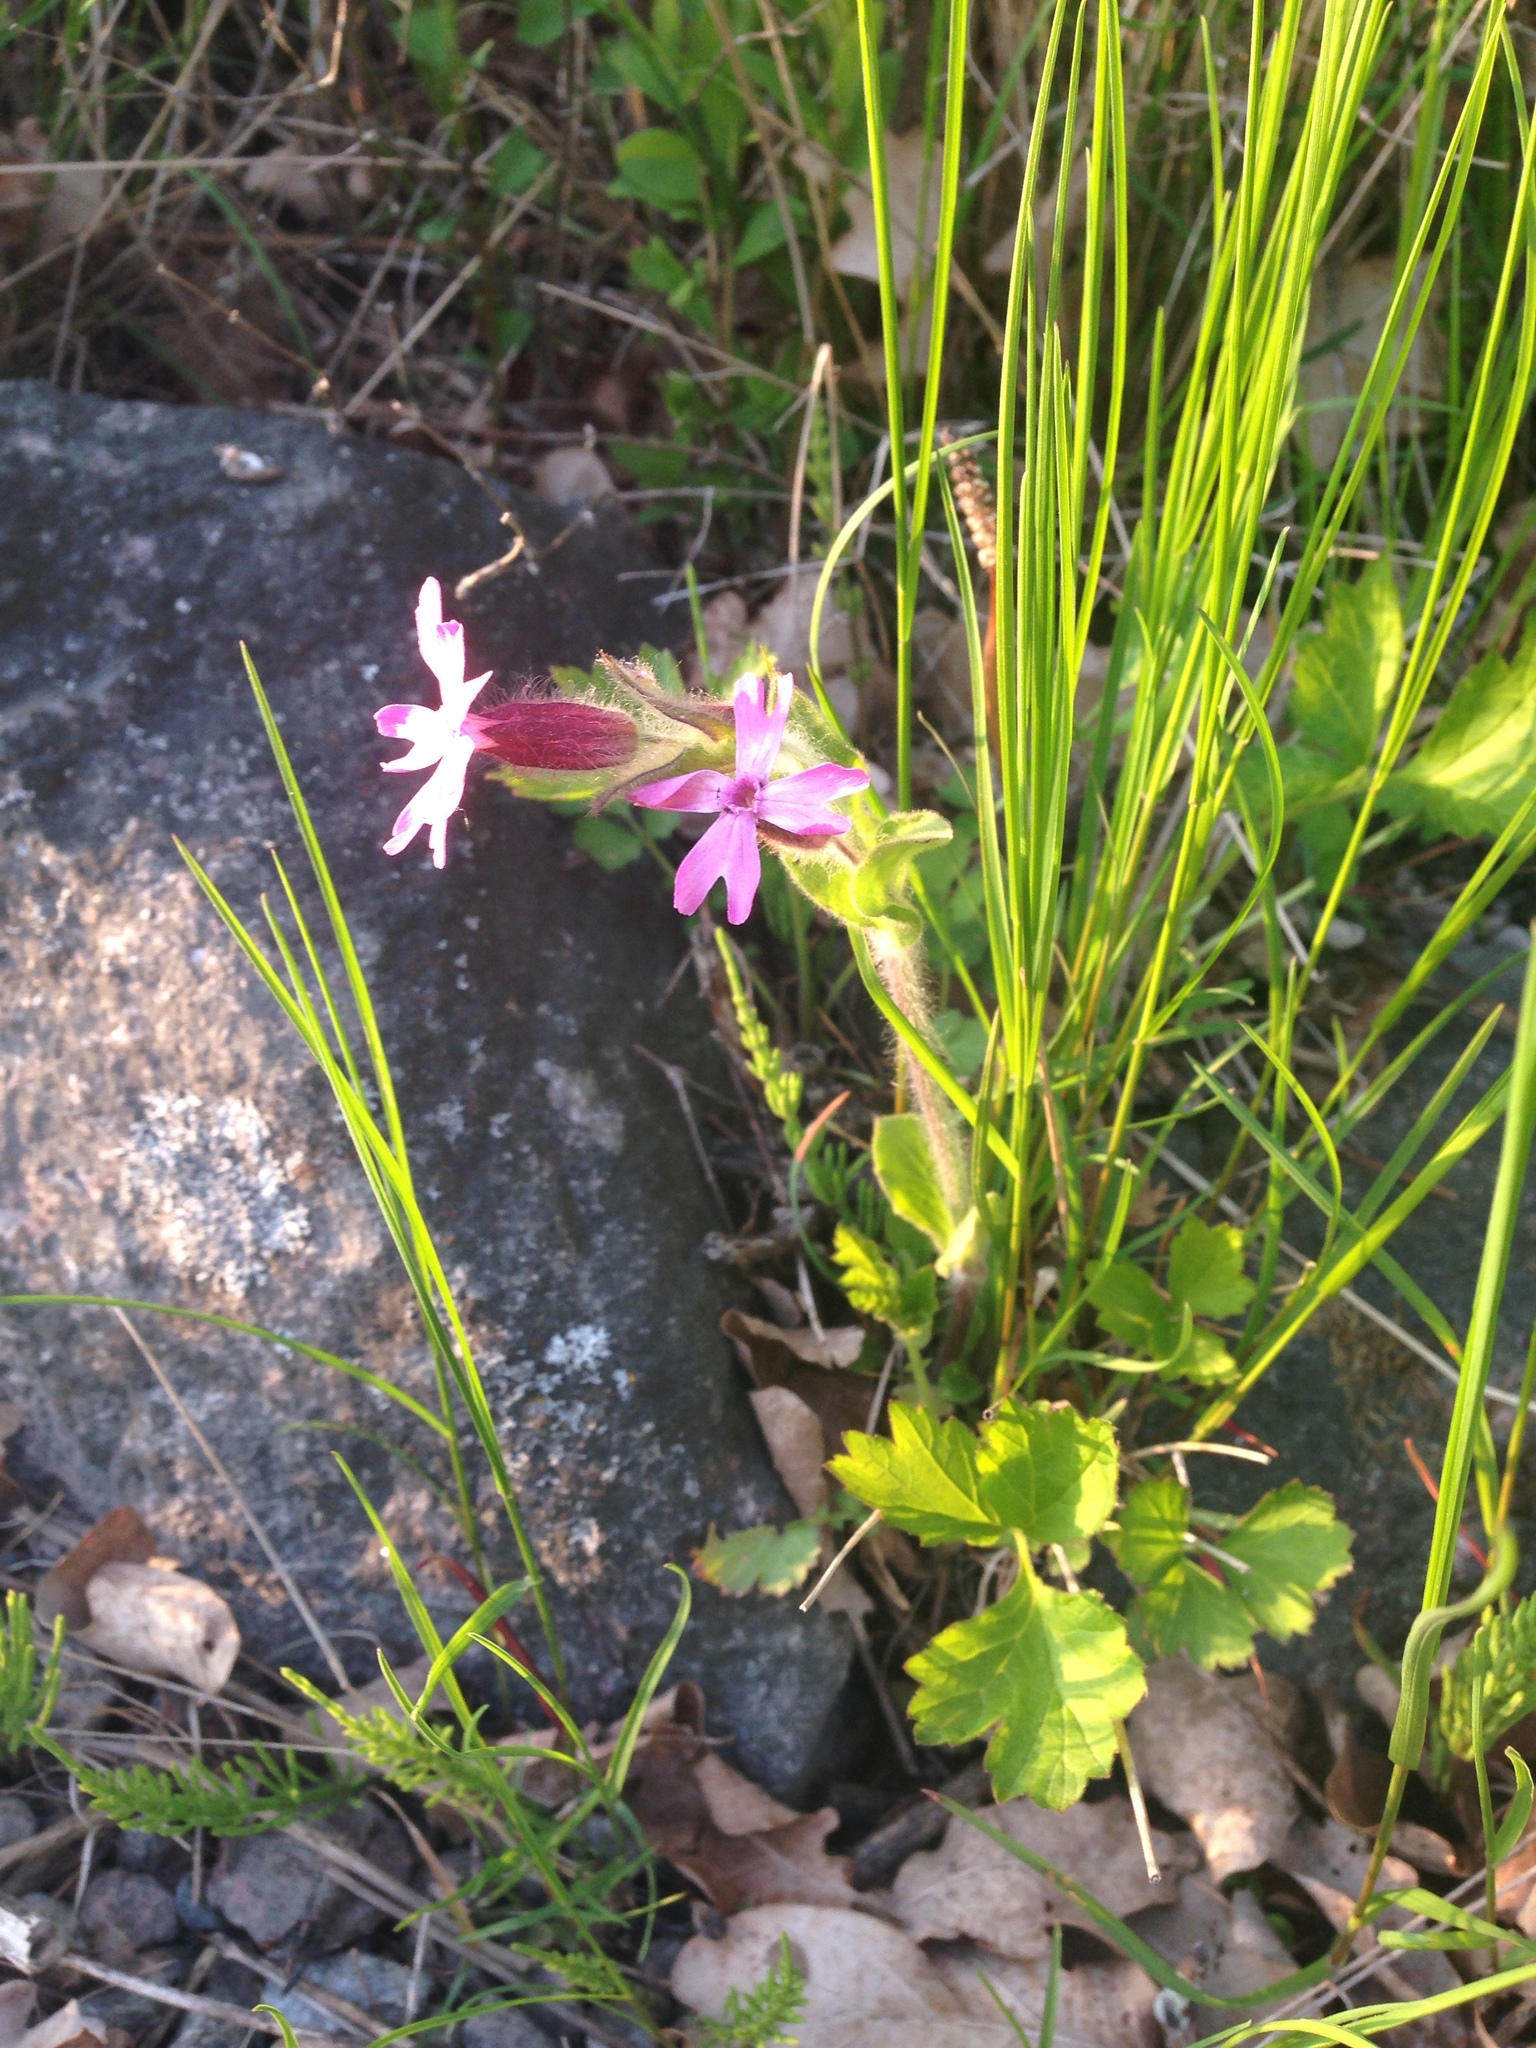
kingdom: Plantae
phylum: Tracheophyta
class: Magnoliopsida
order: Caryophyllales
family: Caryophyllaceae
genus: Silene
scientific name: Silene dioica
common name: Red campion
